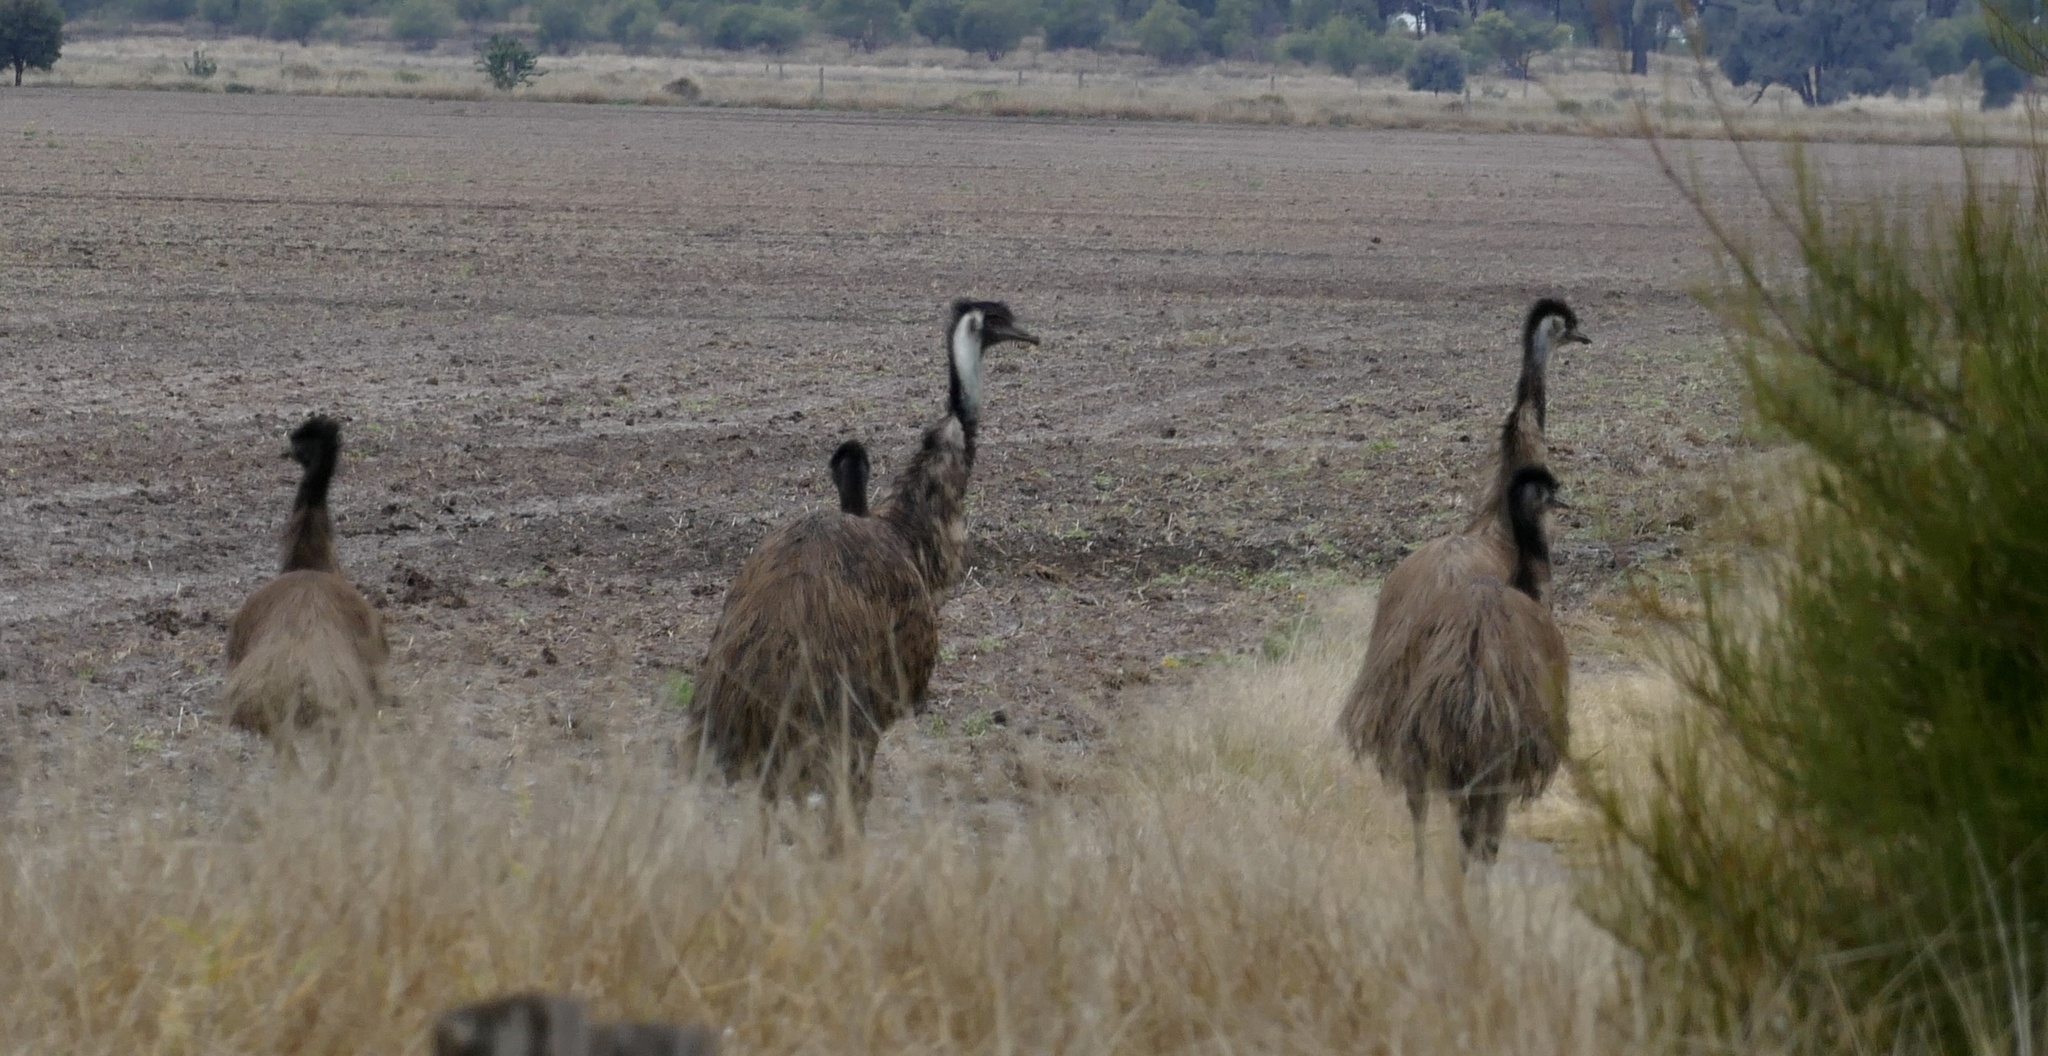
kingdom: Animalia
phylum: Chordata
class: Aves
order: Casuariiformes
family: Dromaiidae
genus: Dromaius
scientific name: Dromaius novaehollandiae
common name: Emu
